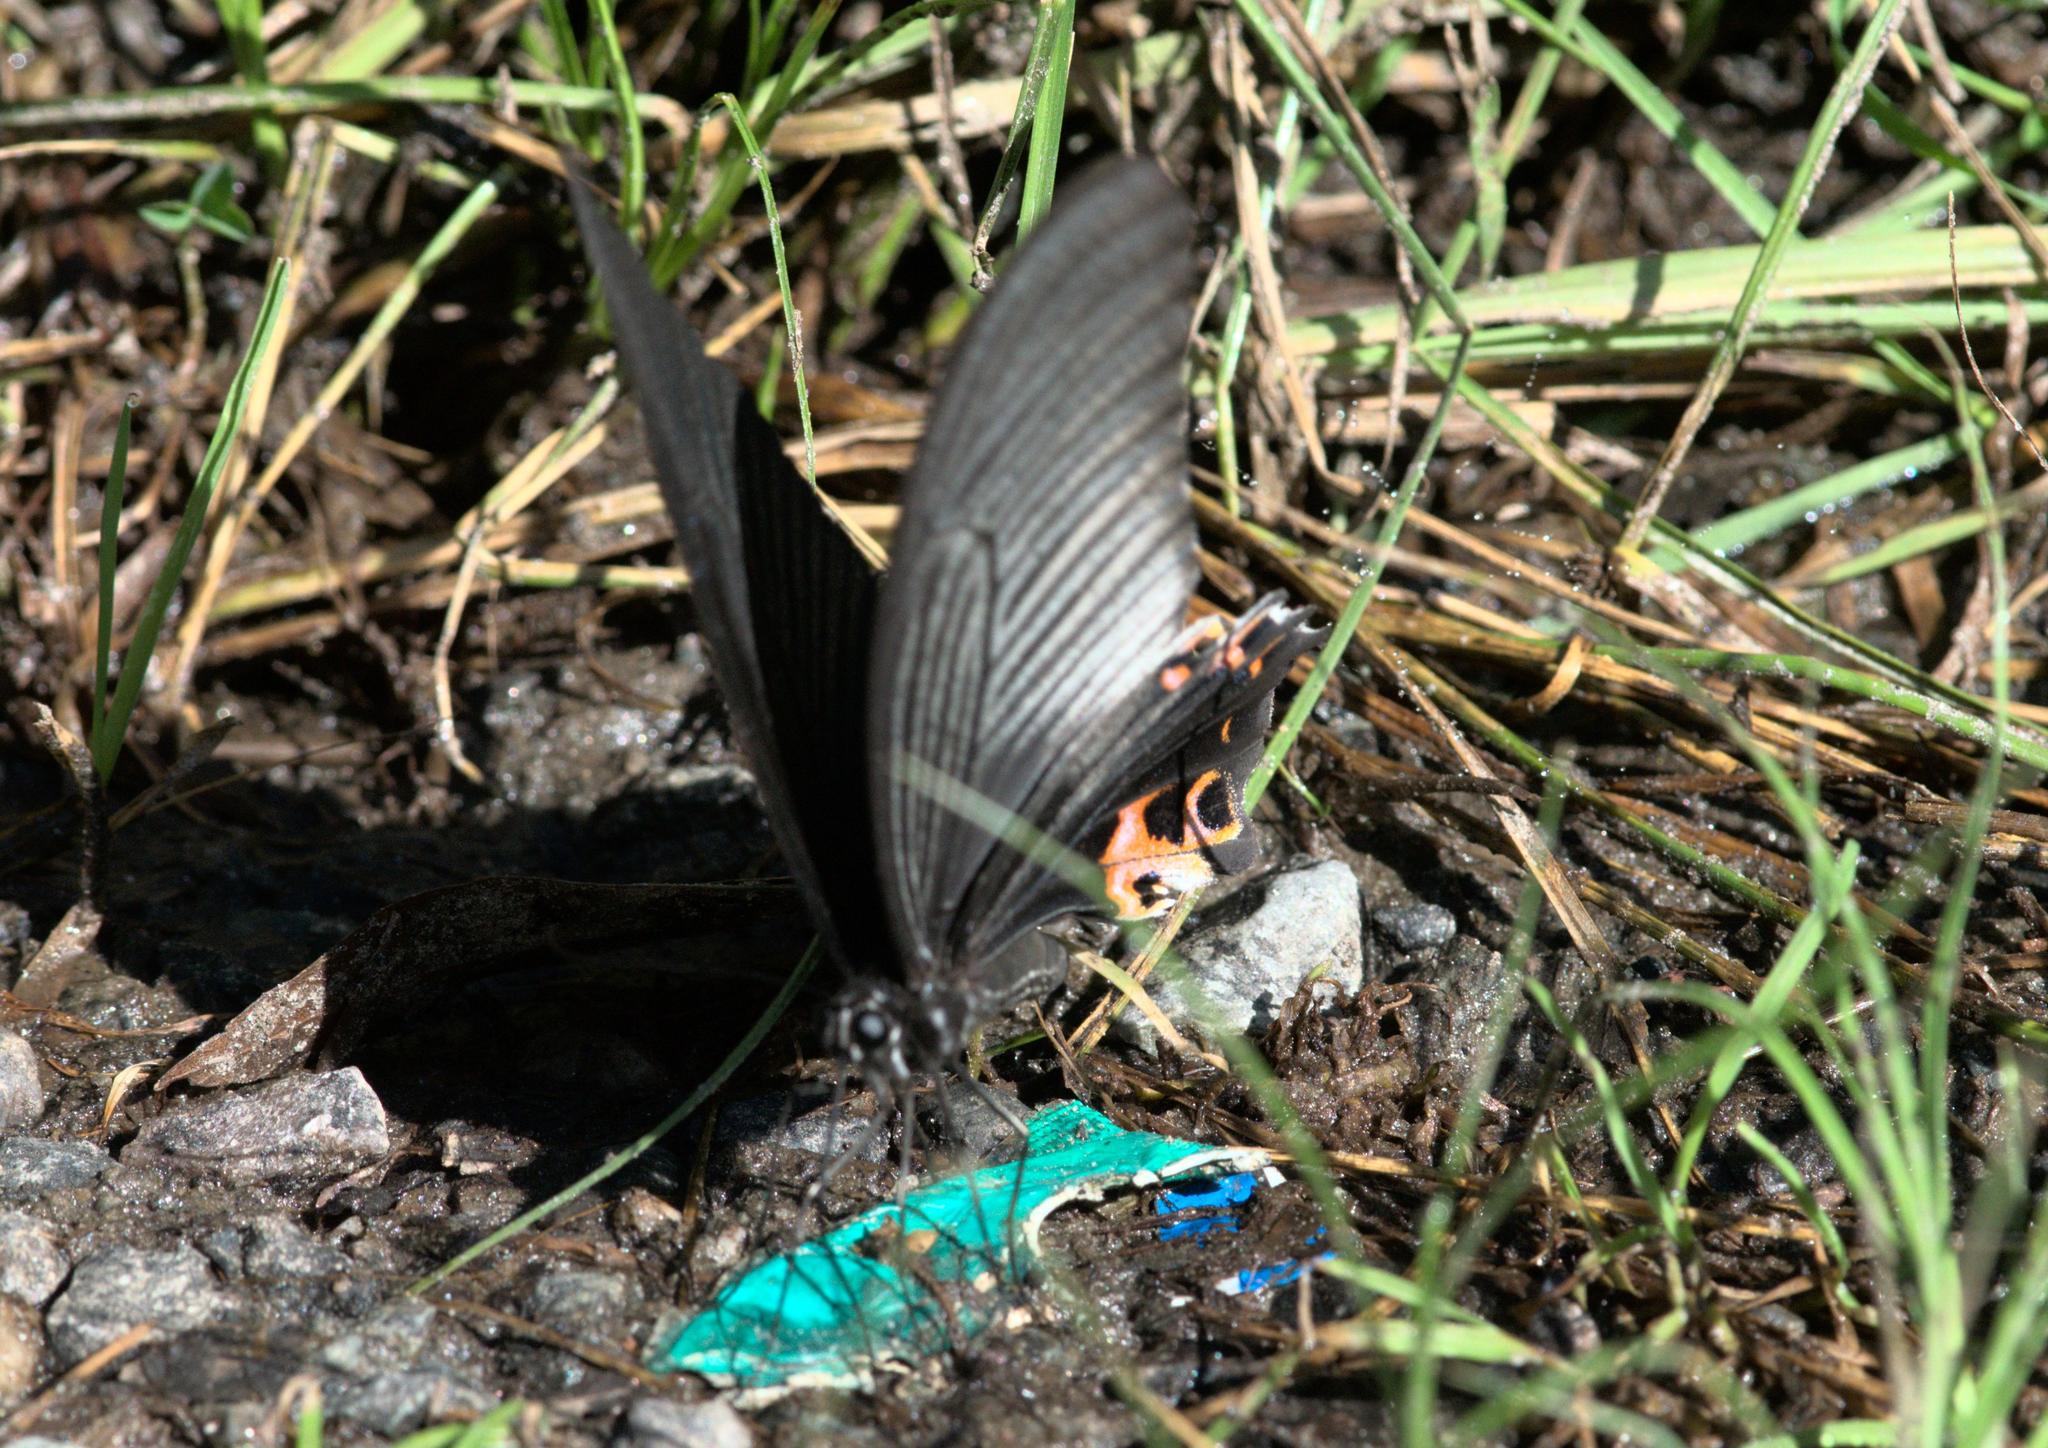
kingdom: Animalia
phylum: Arthropoda
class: Insecta
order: Lepidoptera
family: Papilionidae
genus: Papilio
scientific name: Papilio protenor
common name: Spangle
